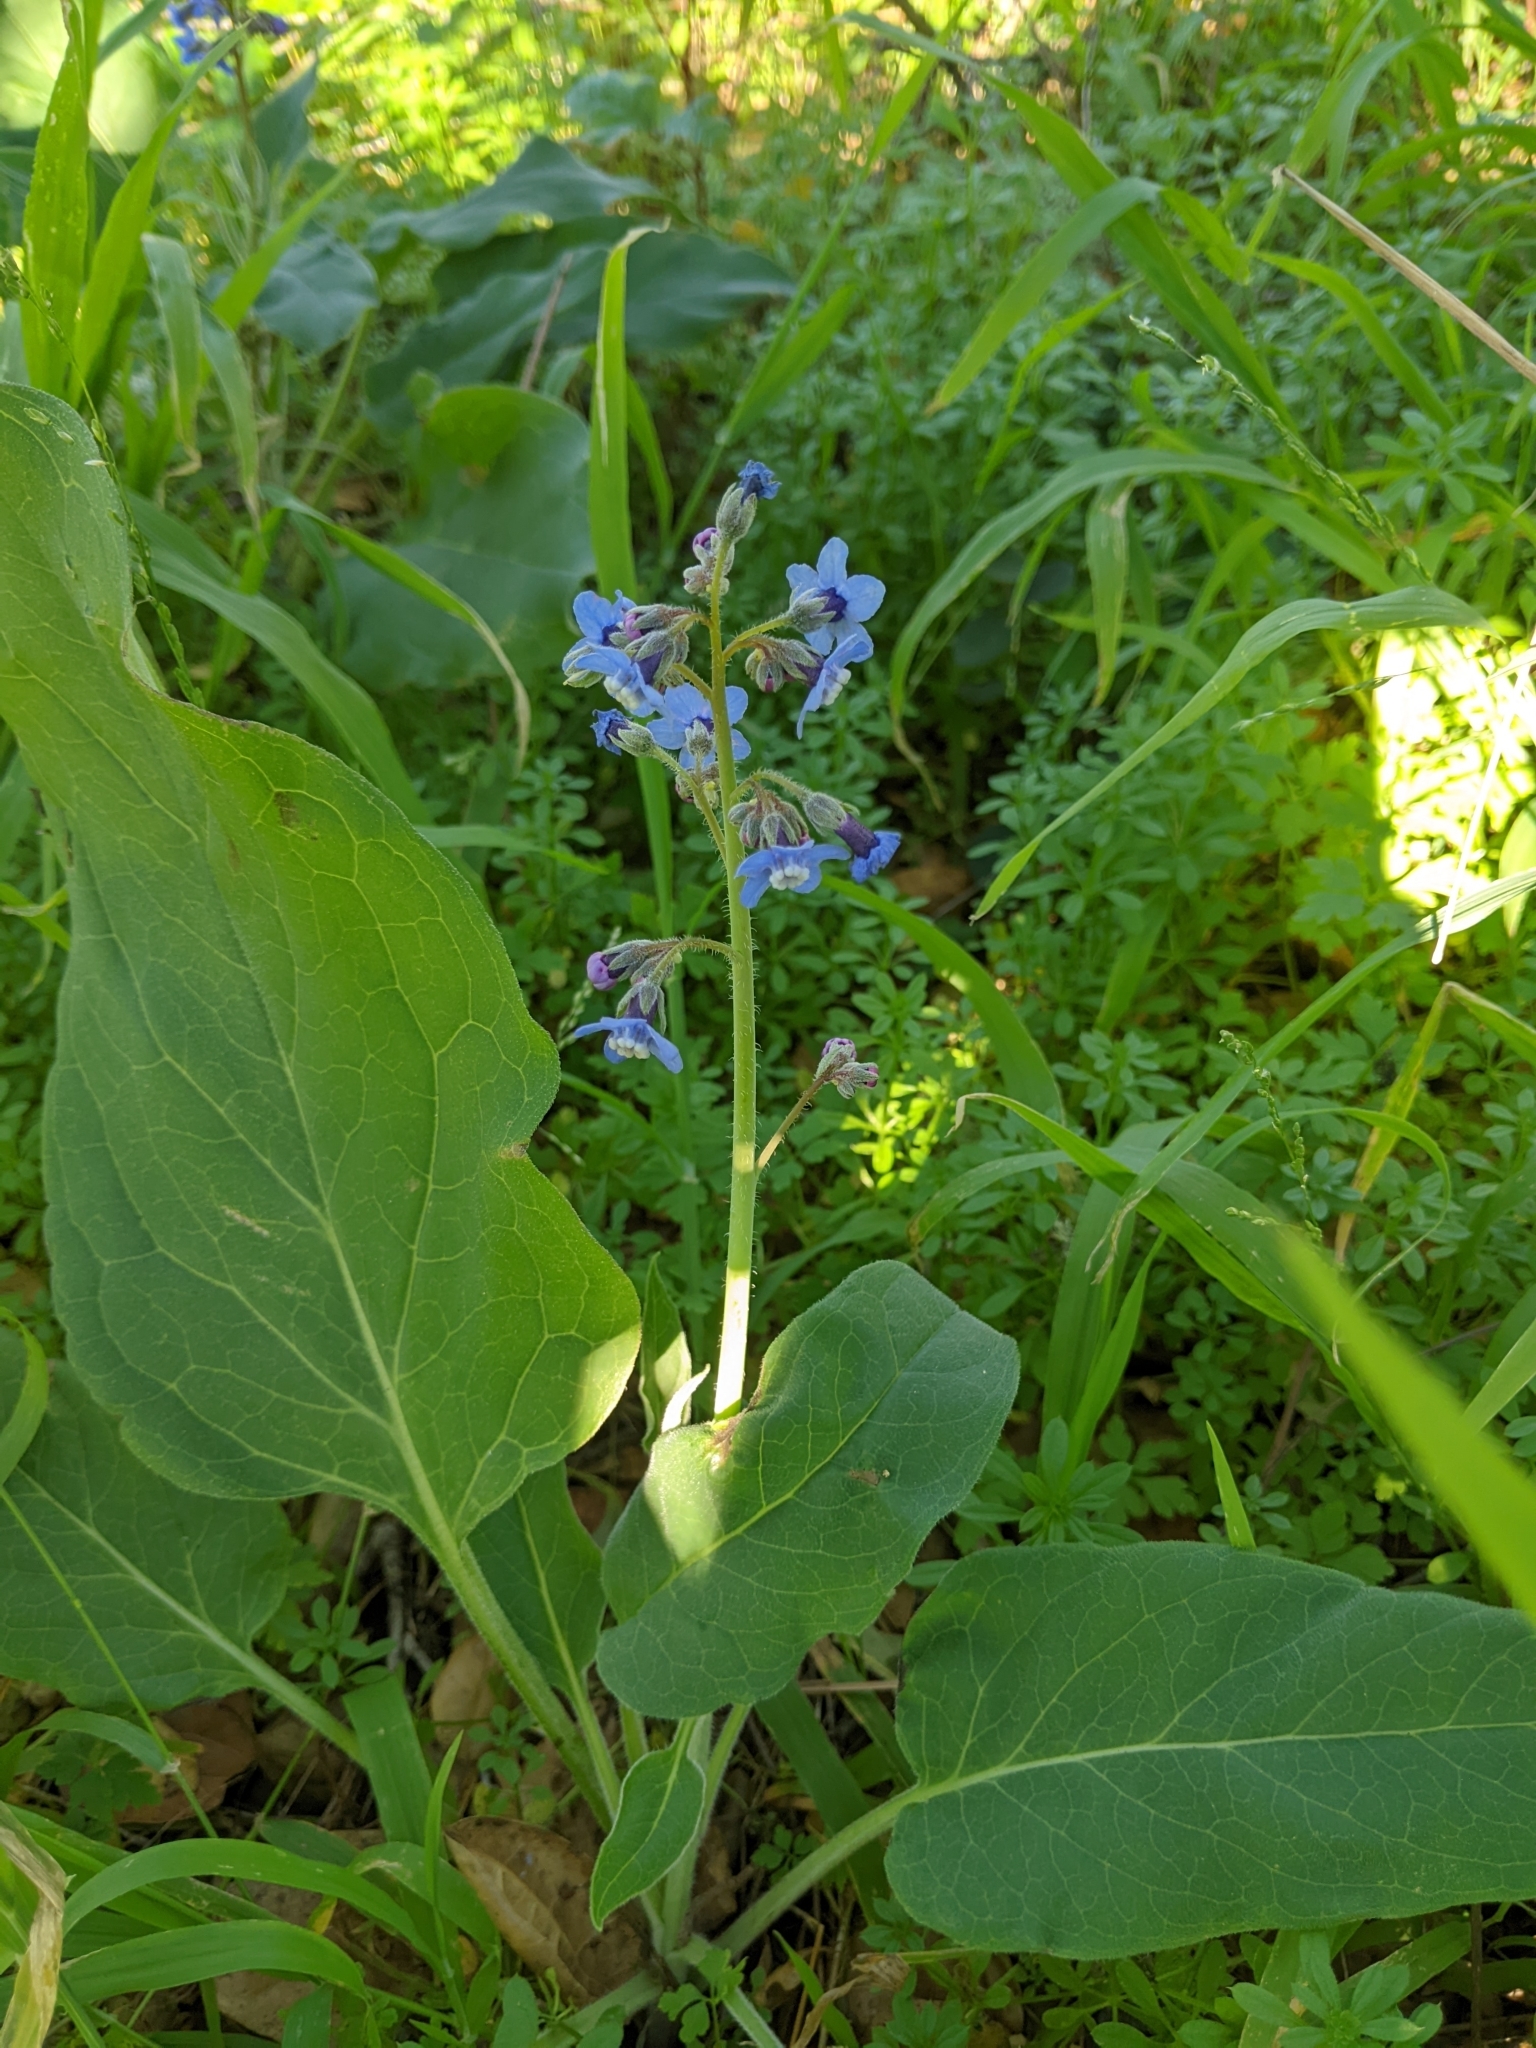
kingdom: Plantae
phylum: Tracheophyta
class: Magnoliopsida
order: Boraginales
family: Boraginaceae
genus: Adelinia
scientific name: Adelinia grande
